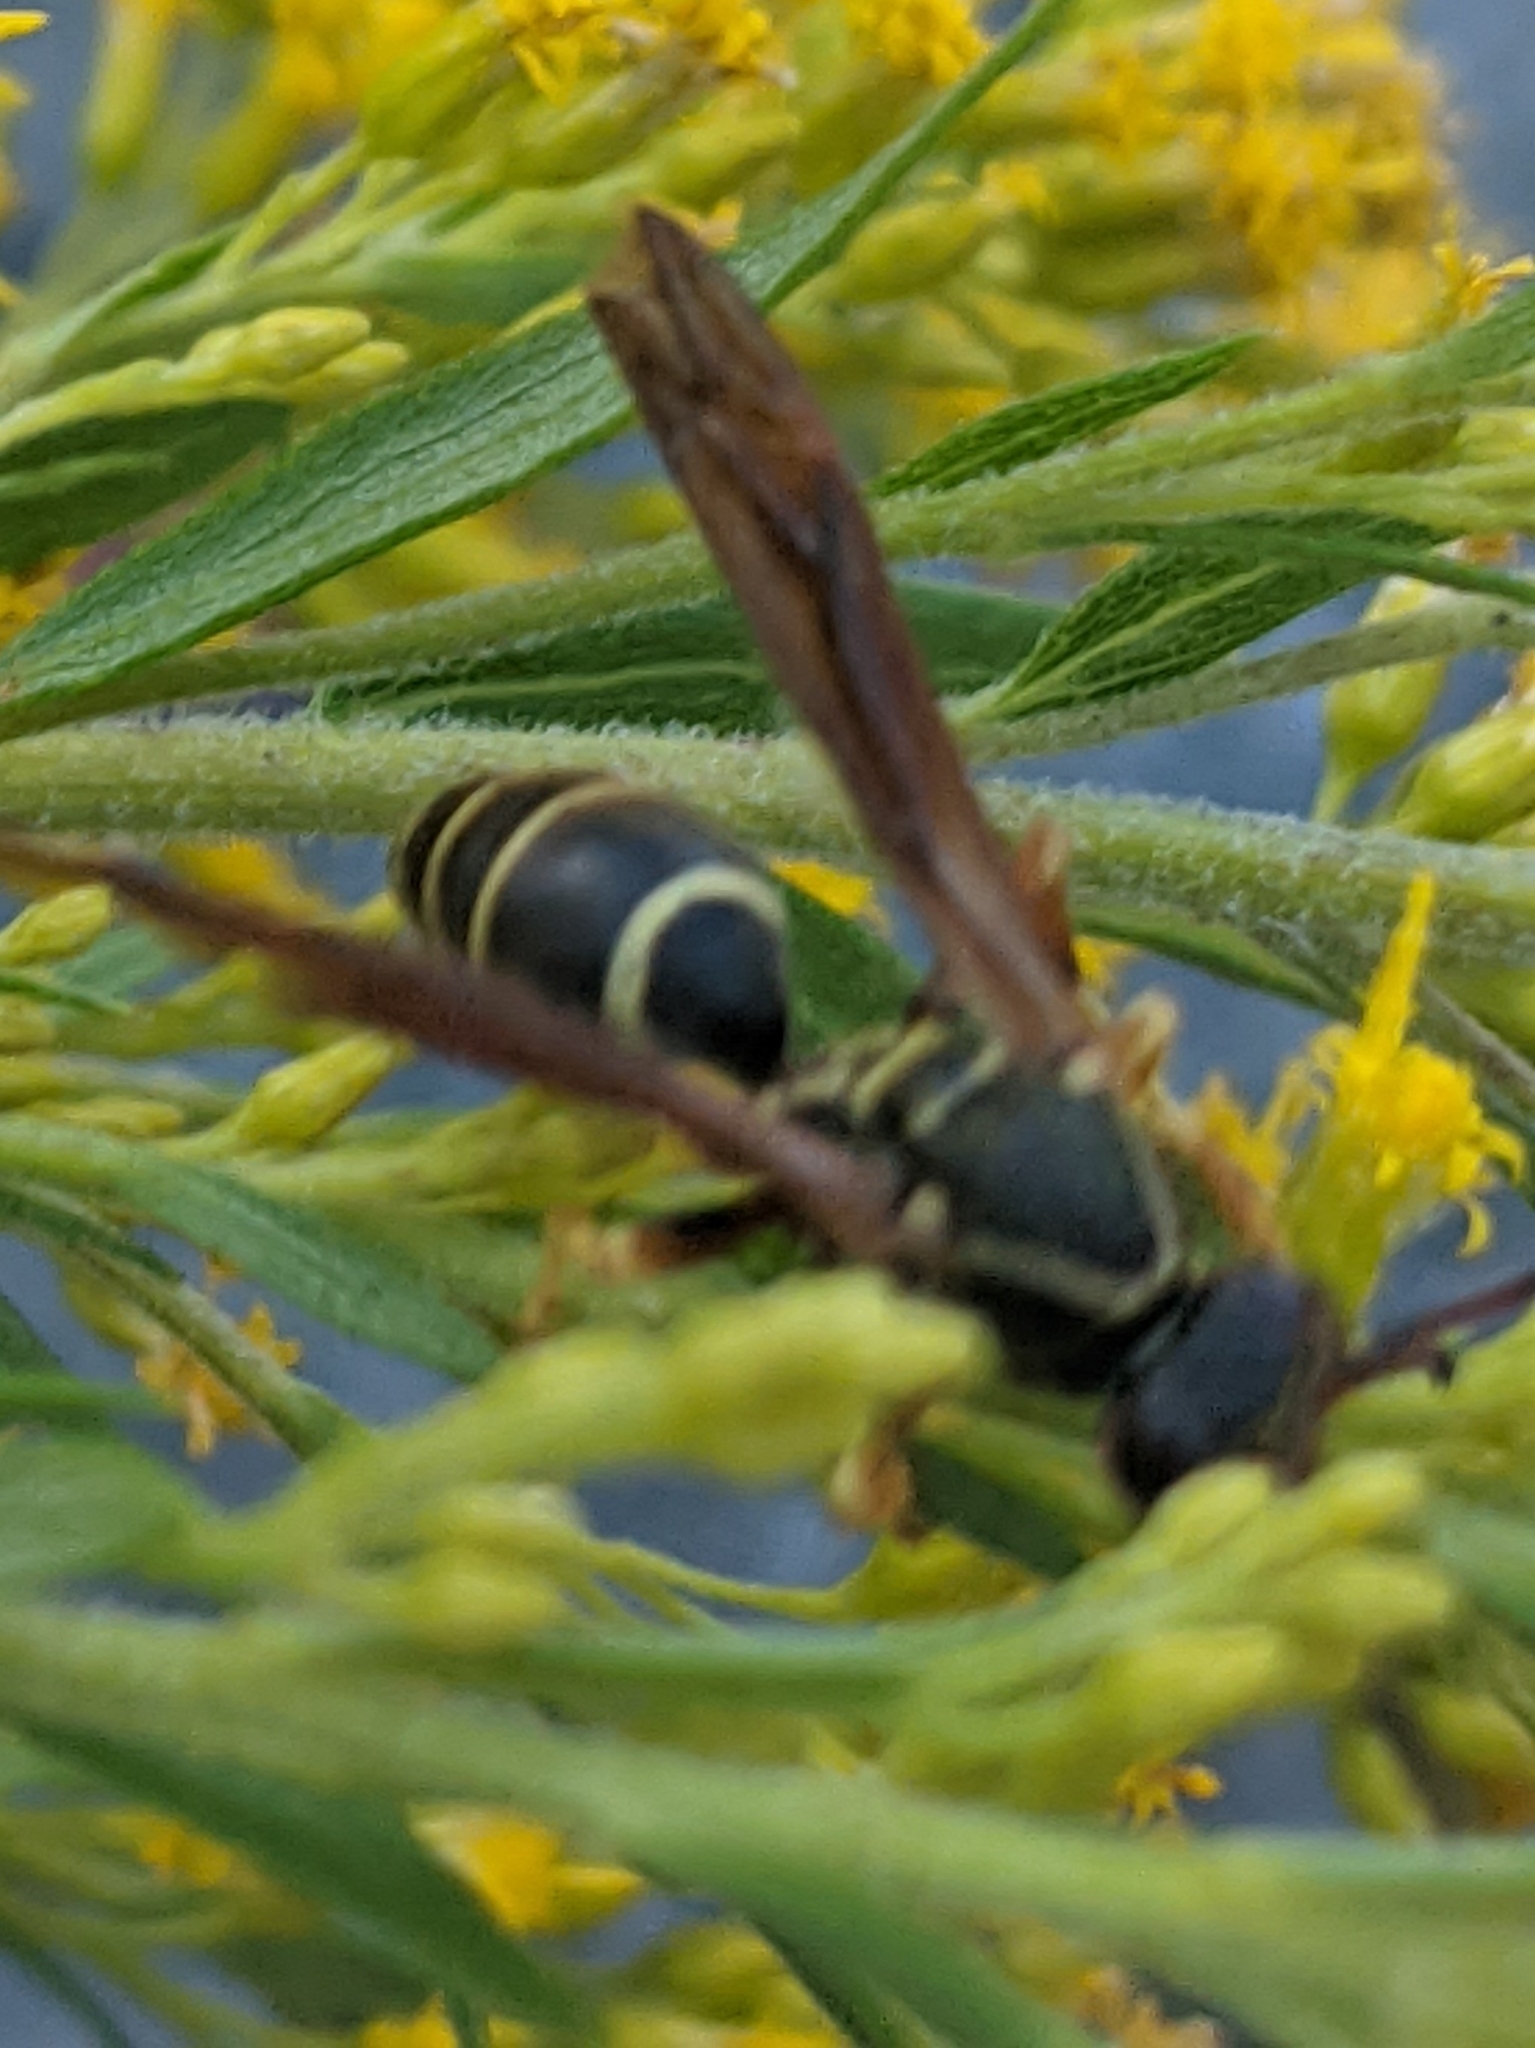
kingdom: Animalia
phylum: Arthropoda
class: Insecta
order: Hymenoptera
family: Eumenidae
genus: Polistes
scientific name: Polistes fuscatus
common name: Dark paper wasp
